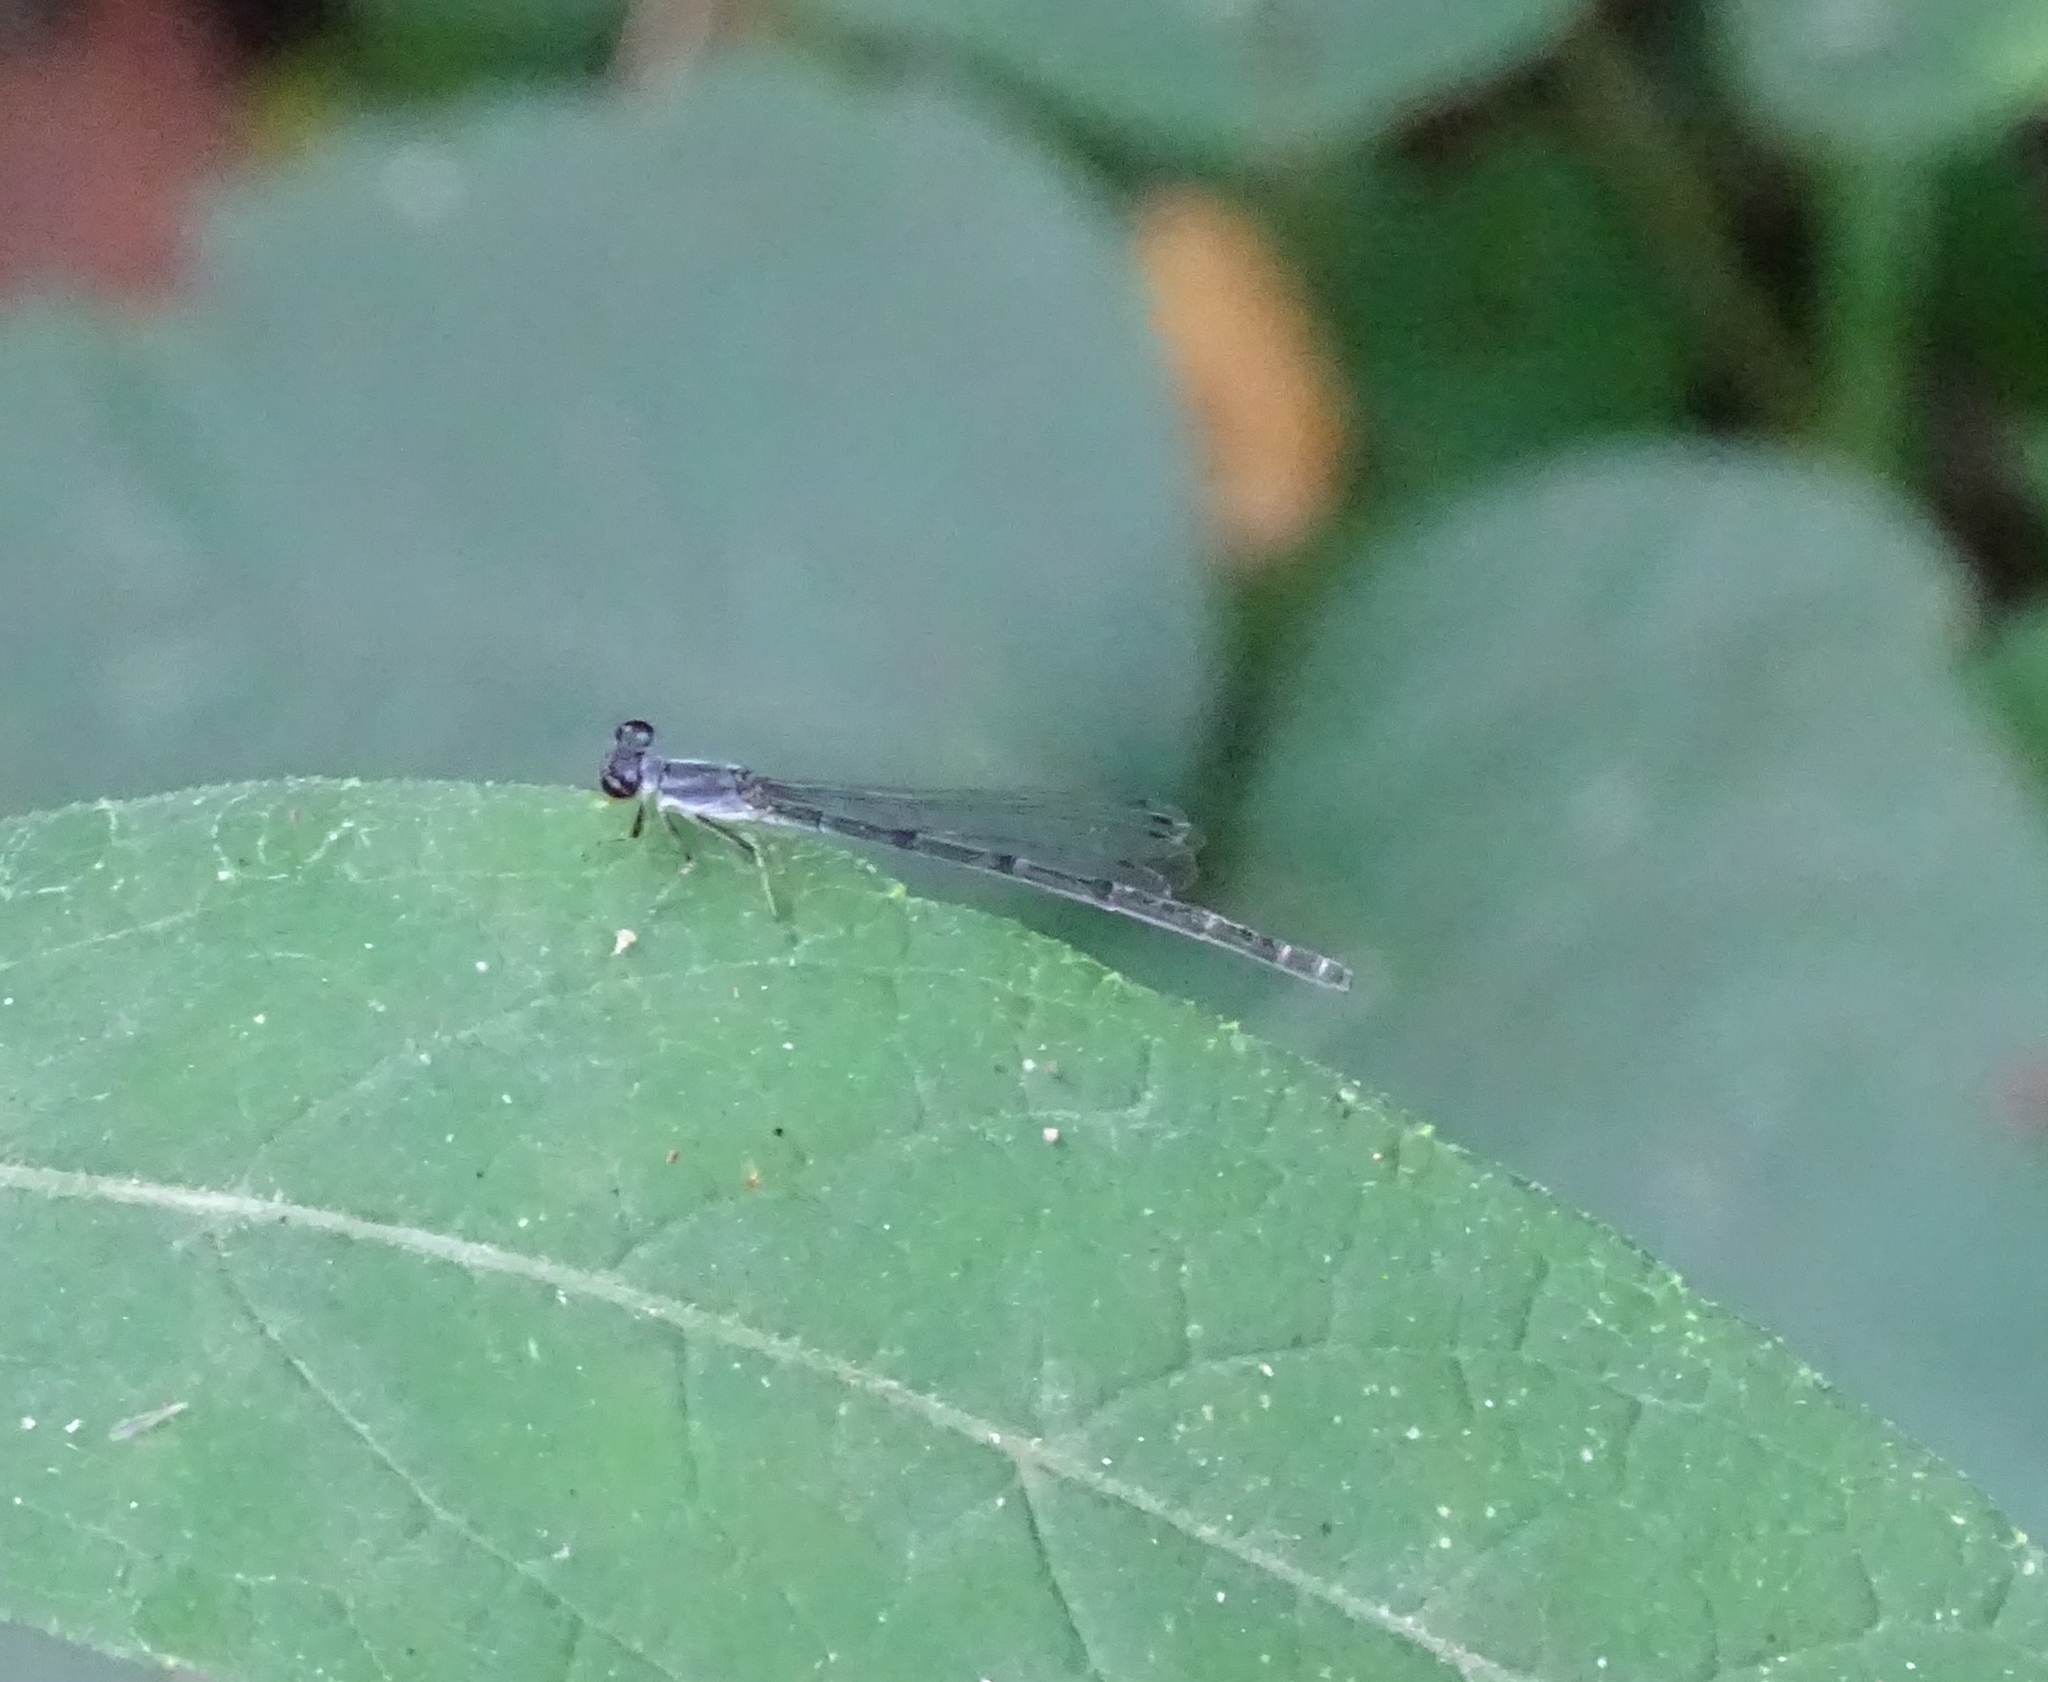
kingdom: Animalia
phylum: Arthropoda
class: Insecta
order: Odonata
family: Coenagrionidae
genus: Ischnura
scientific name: Ischnura posita
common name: Fragile forktail
